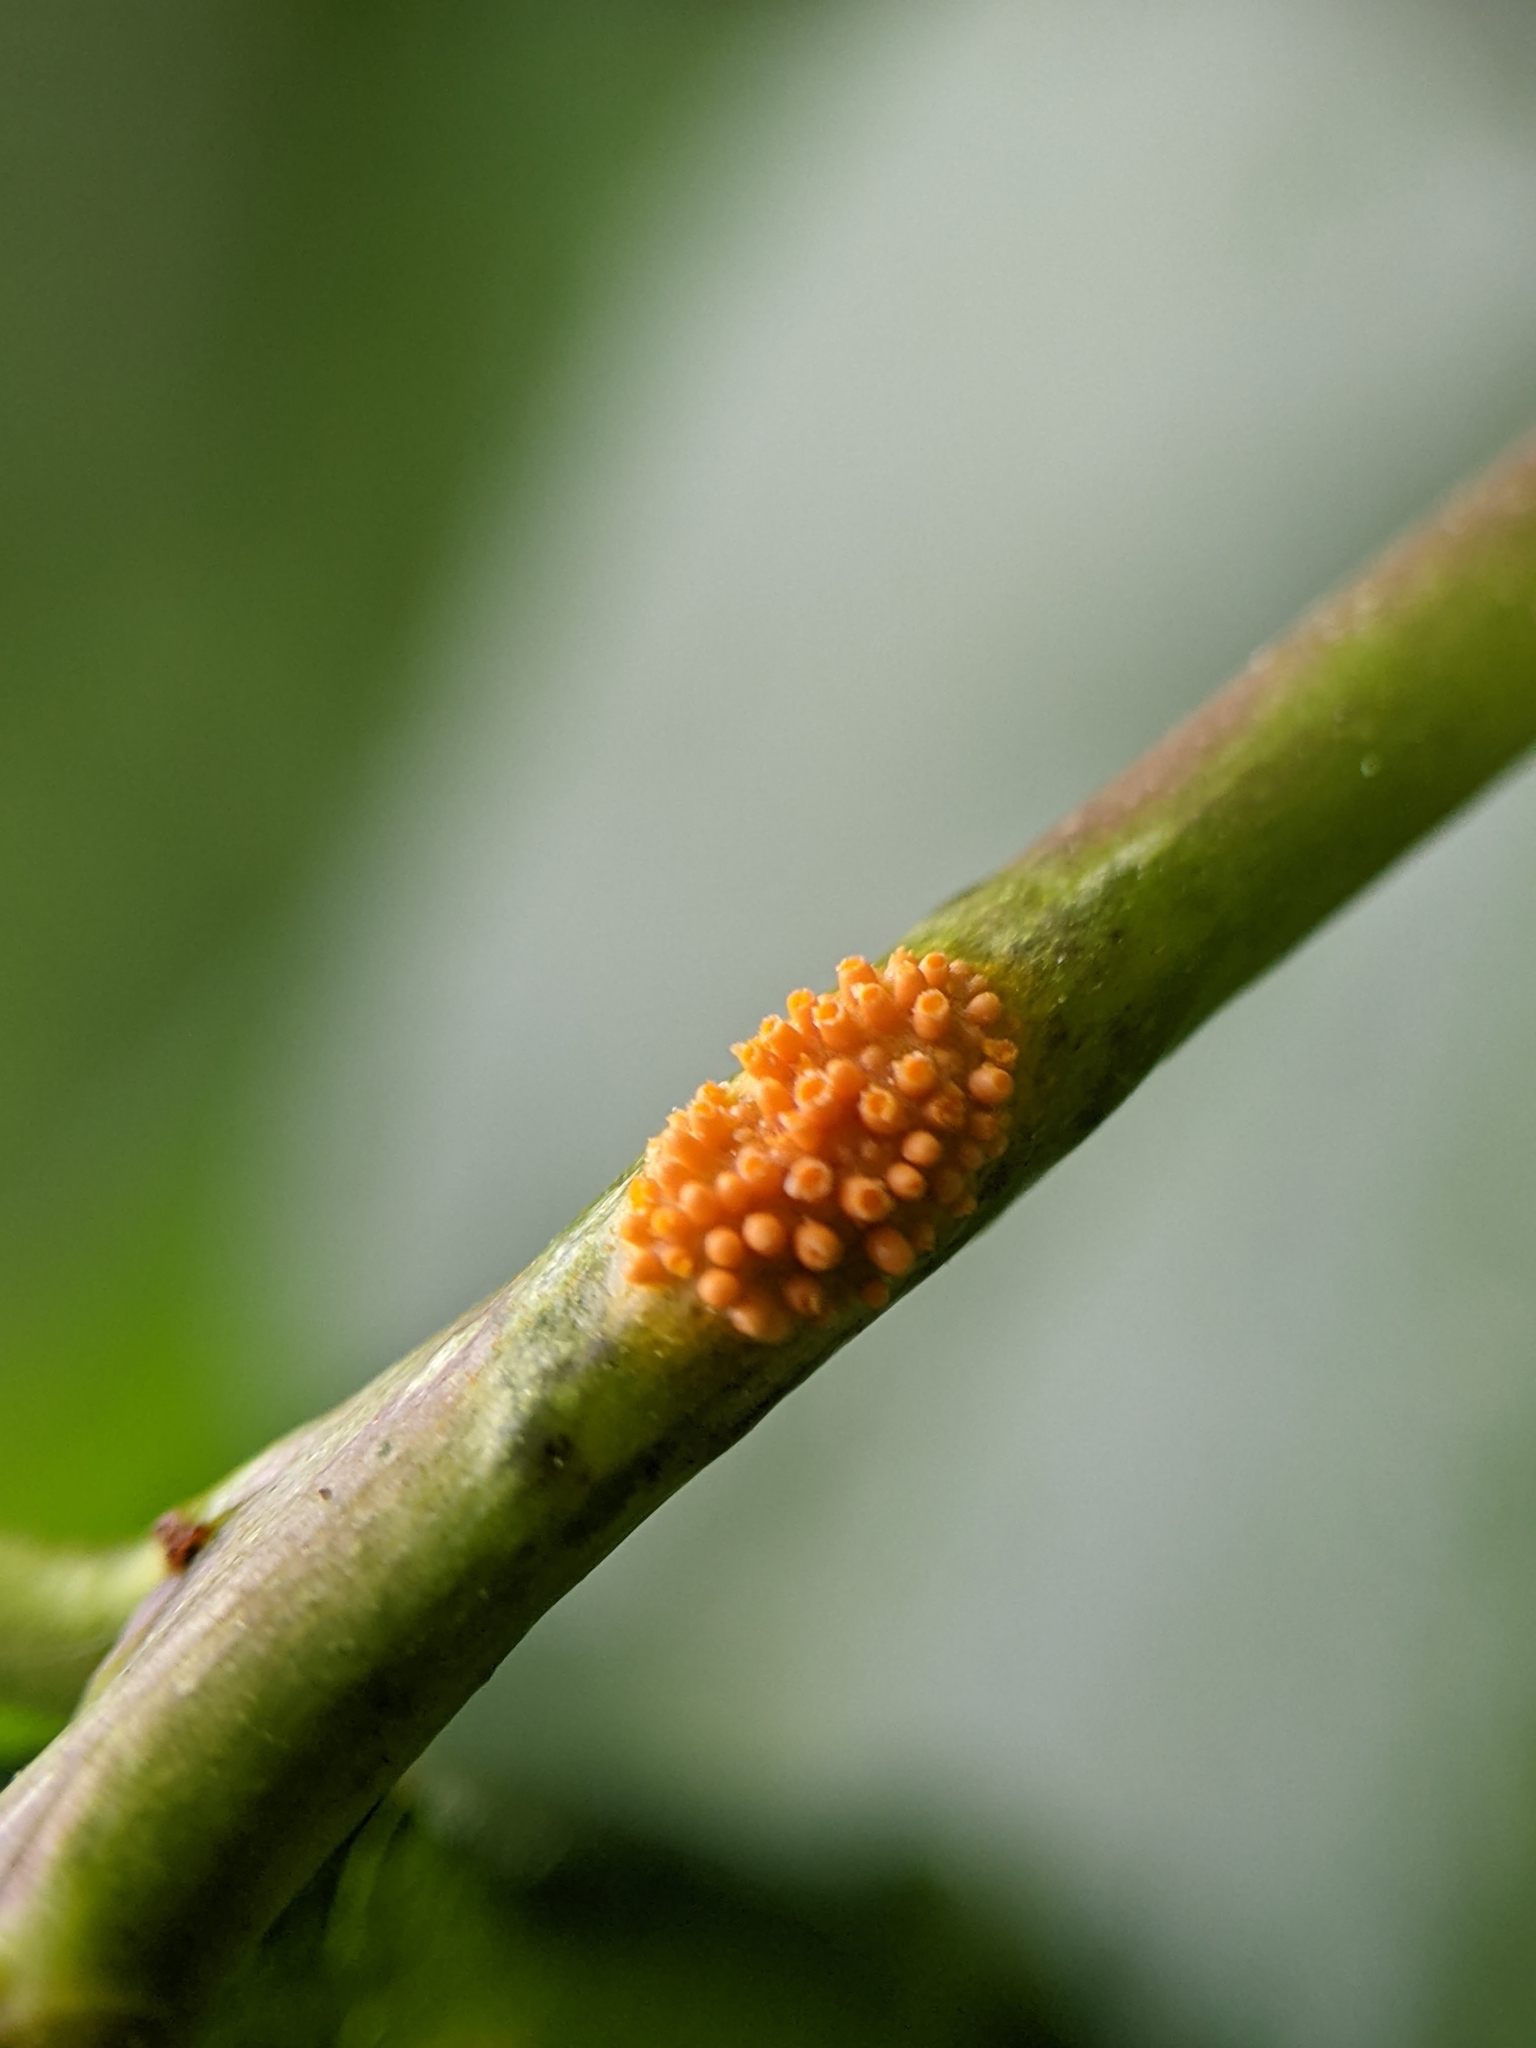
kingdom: Fungi
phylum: Basidiomycota
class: Pucciniomycetes
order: Pucciniales
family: Pucciniaceae
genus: Puccinia
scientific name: Puccinia coronata
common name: Crown rust
